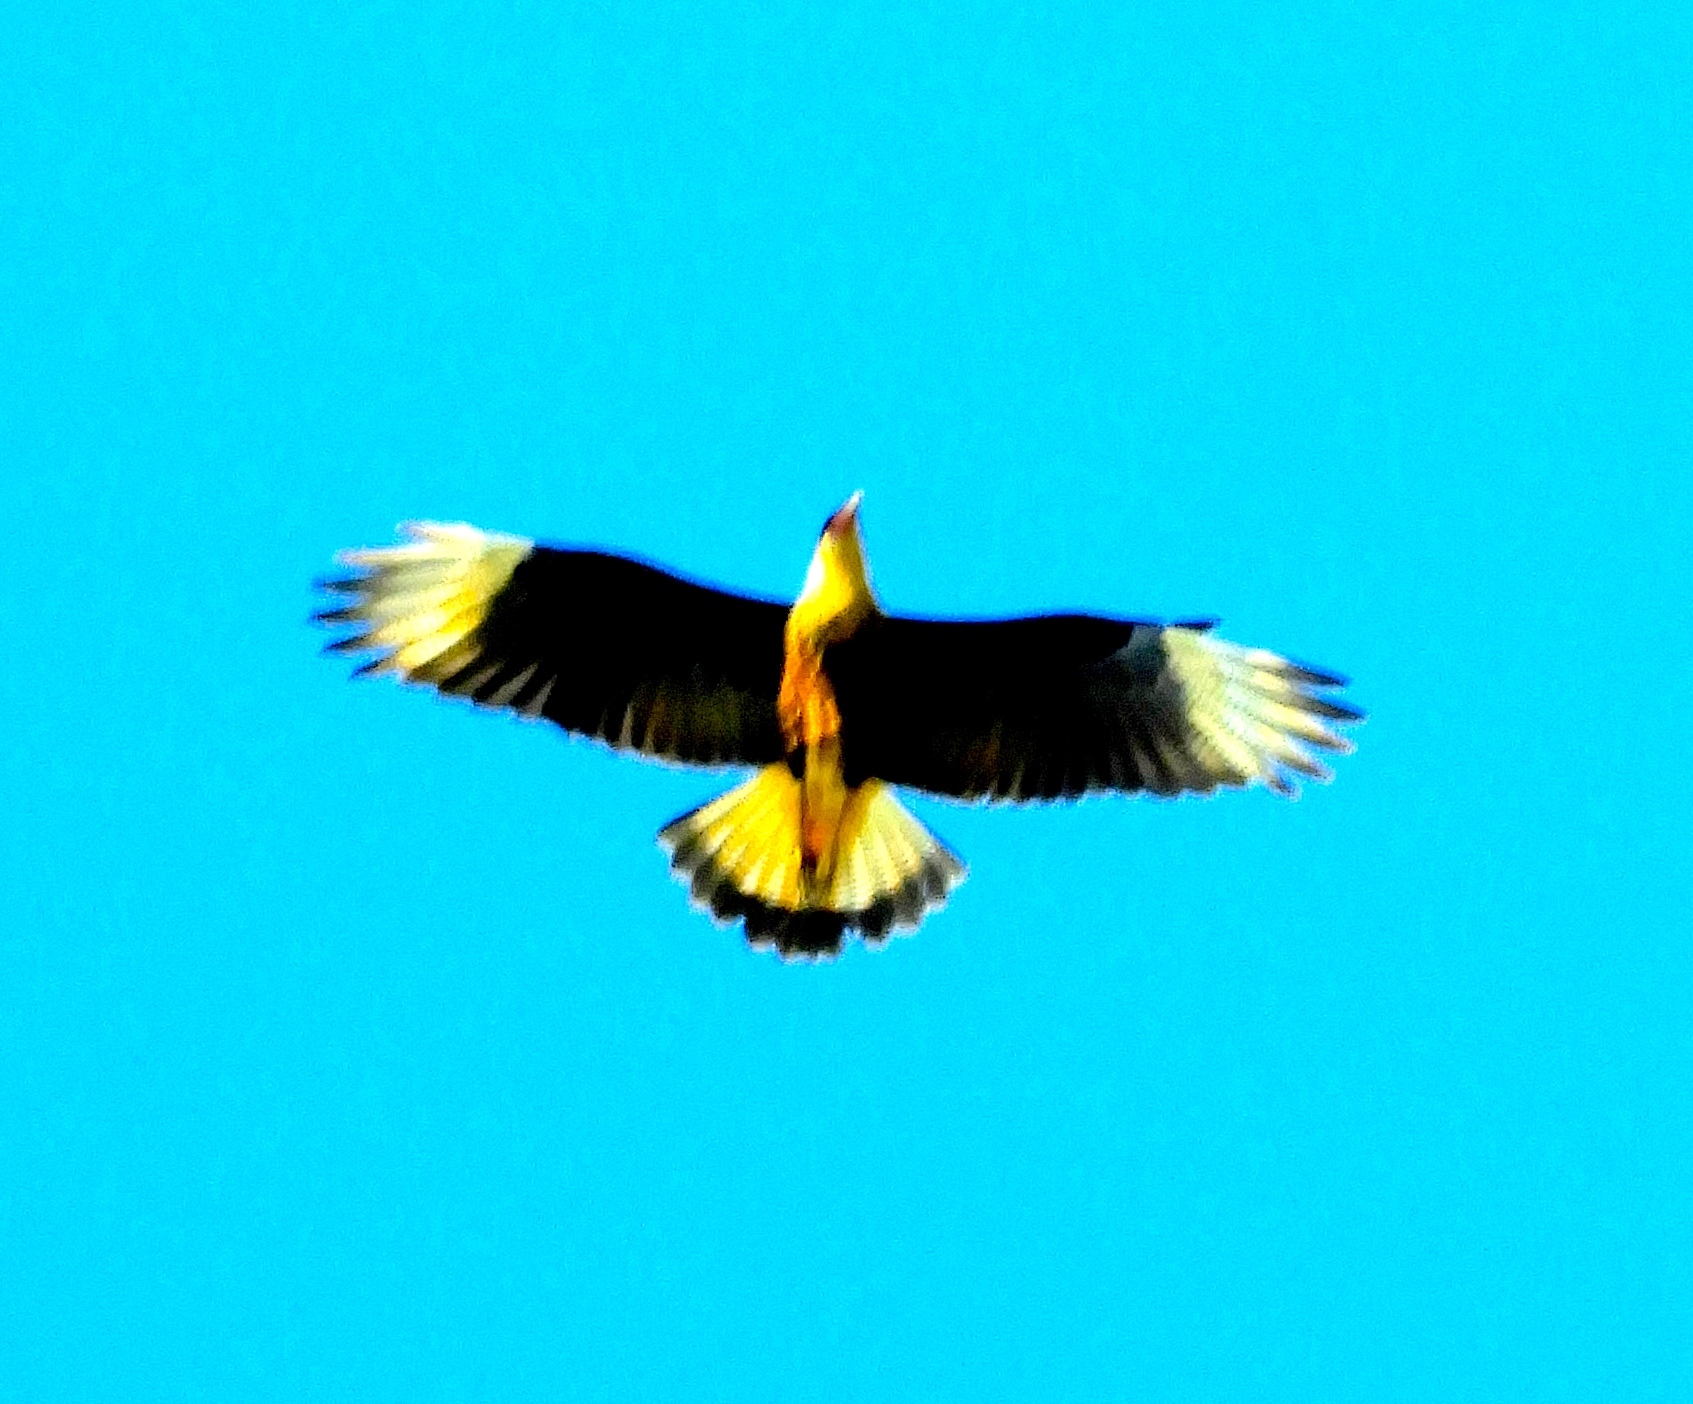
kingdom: Animalia
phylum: Chordata
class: Aves
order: Falconiformes
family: Falconidae
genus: Caracara
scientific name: Caracara plancus
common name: Southern caracara
